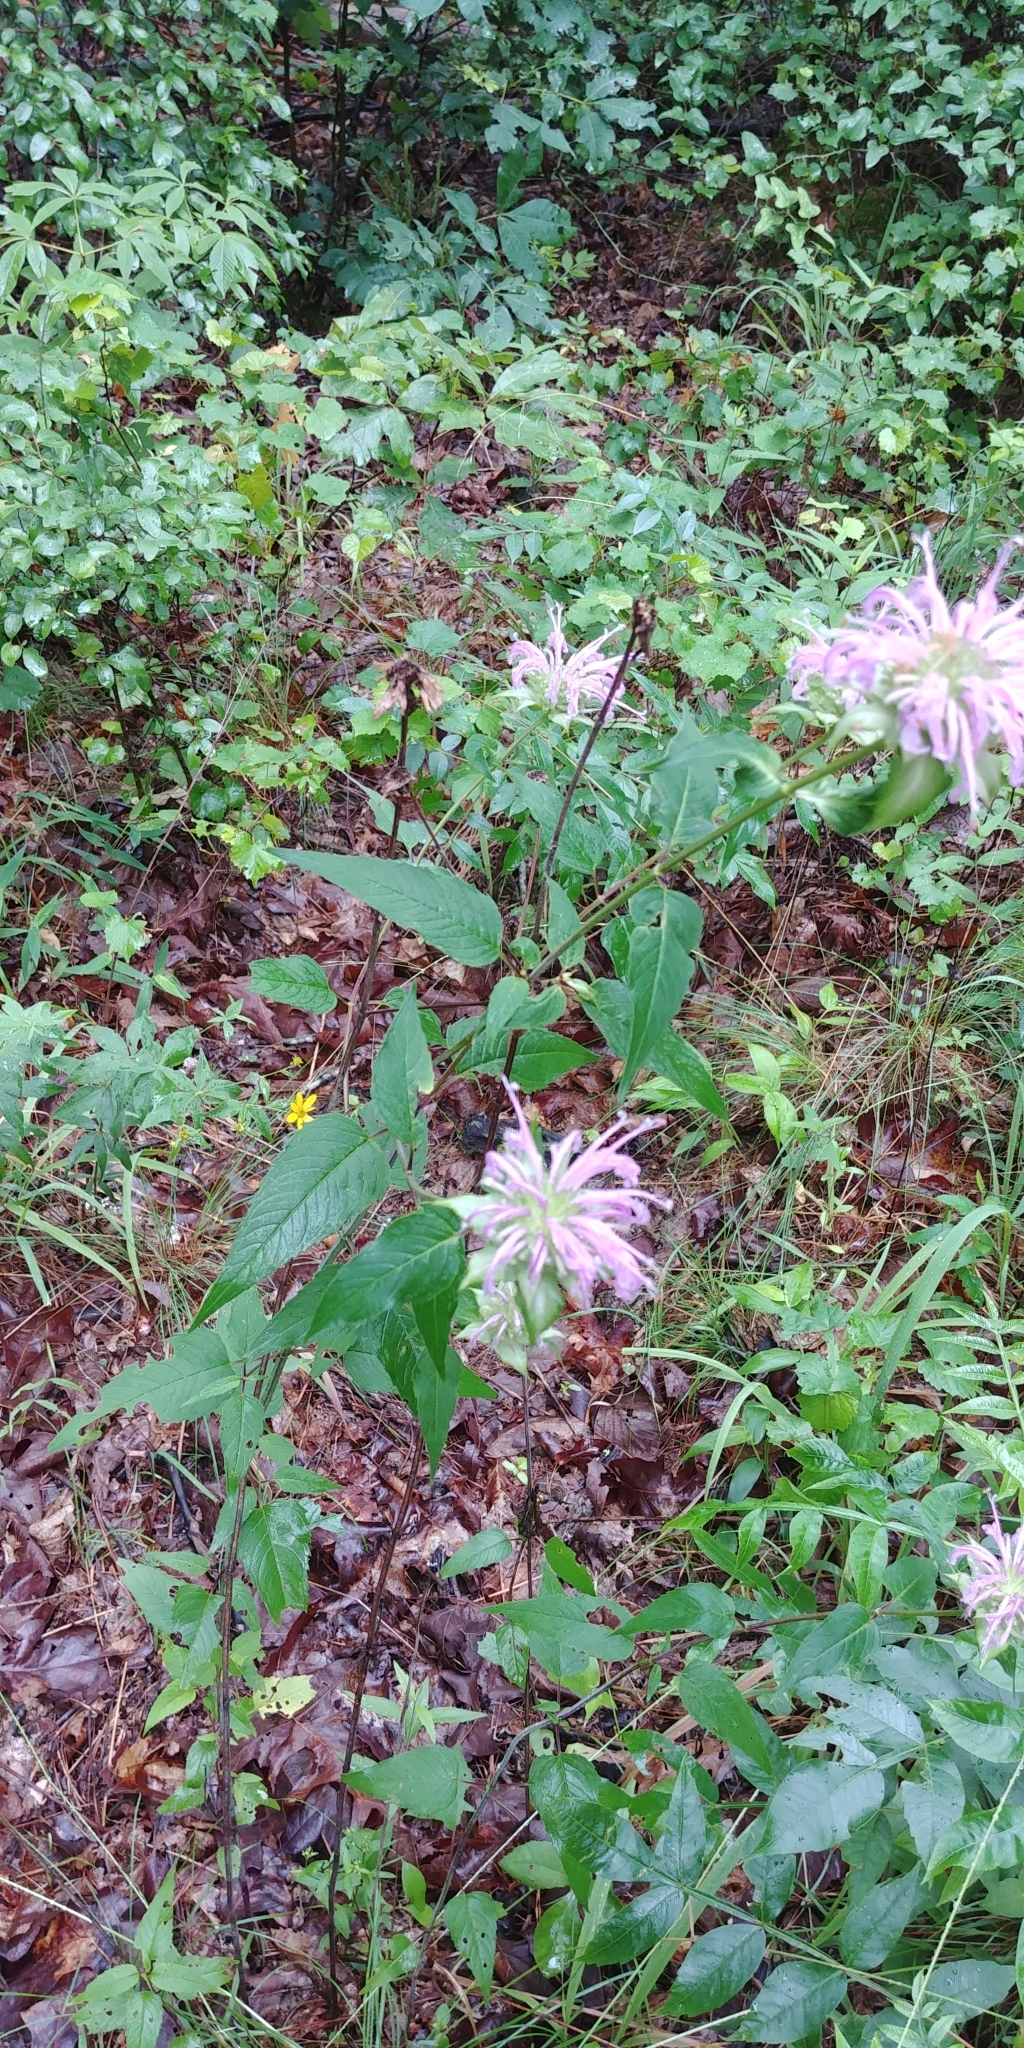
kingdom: Plantae
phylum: Tracheophyta
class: Magnoliopsida
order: Lamiales
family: Lamiaceae
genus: Monarda
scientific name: Monarda fistulosa
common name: Purple beebalm
